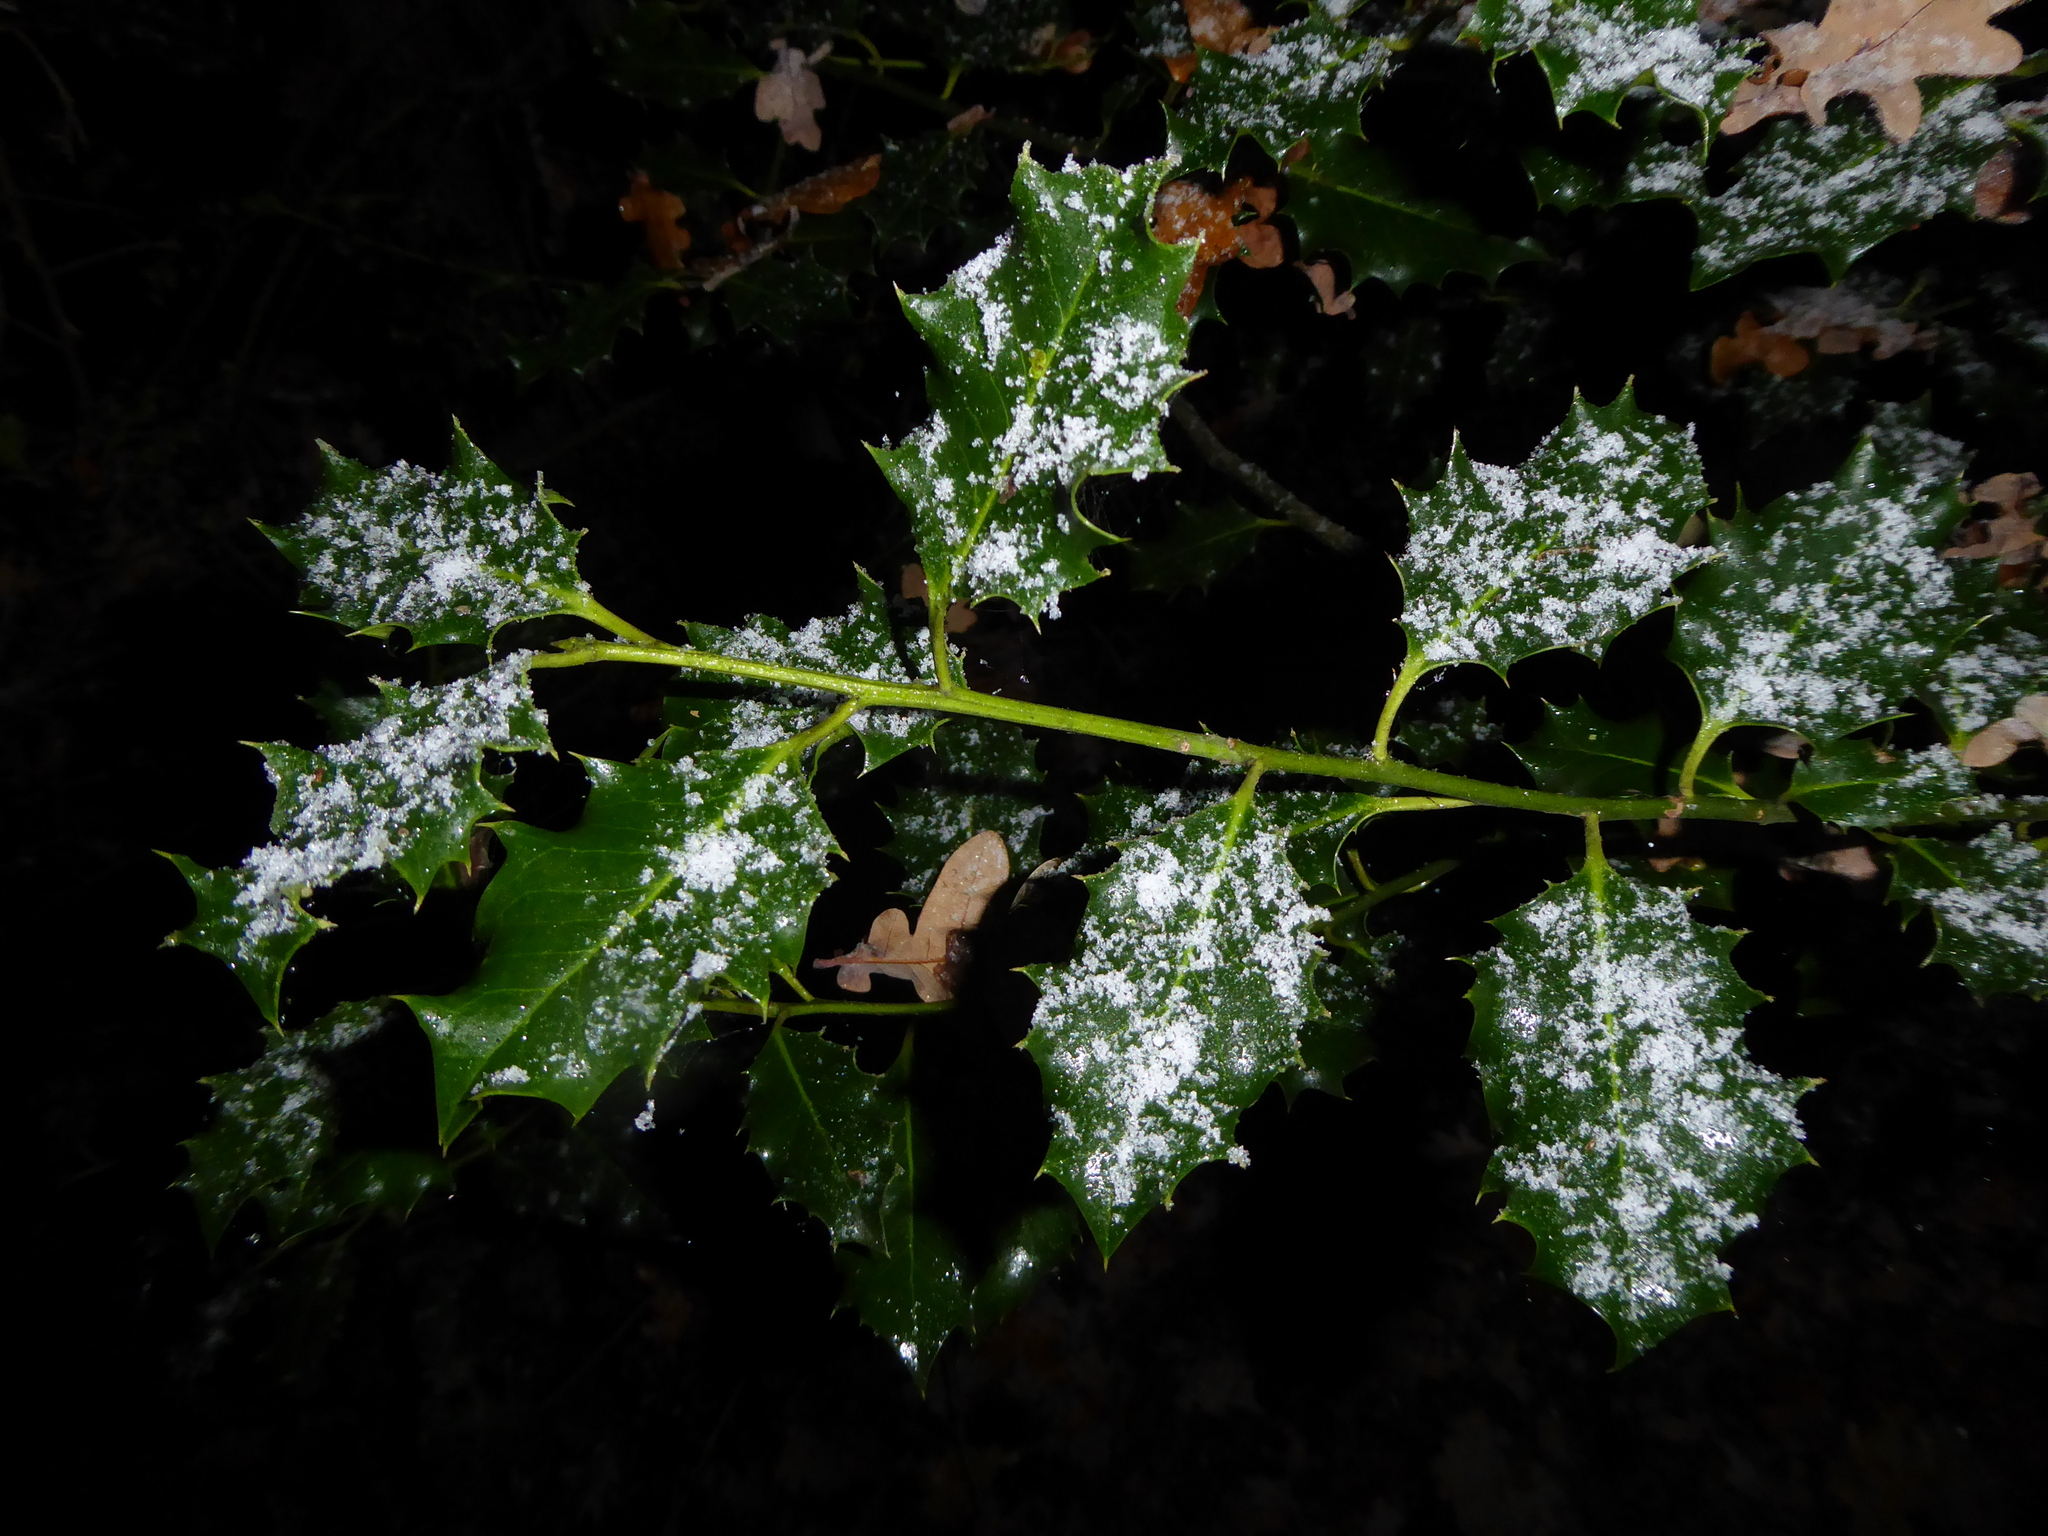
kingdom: Plantae
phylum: Tracheophyta
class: Magnoliopsida
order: Aquifoliales
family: Aquifoliaceae
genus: Ilex
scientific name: Ilex aquifolium
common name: English holly
